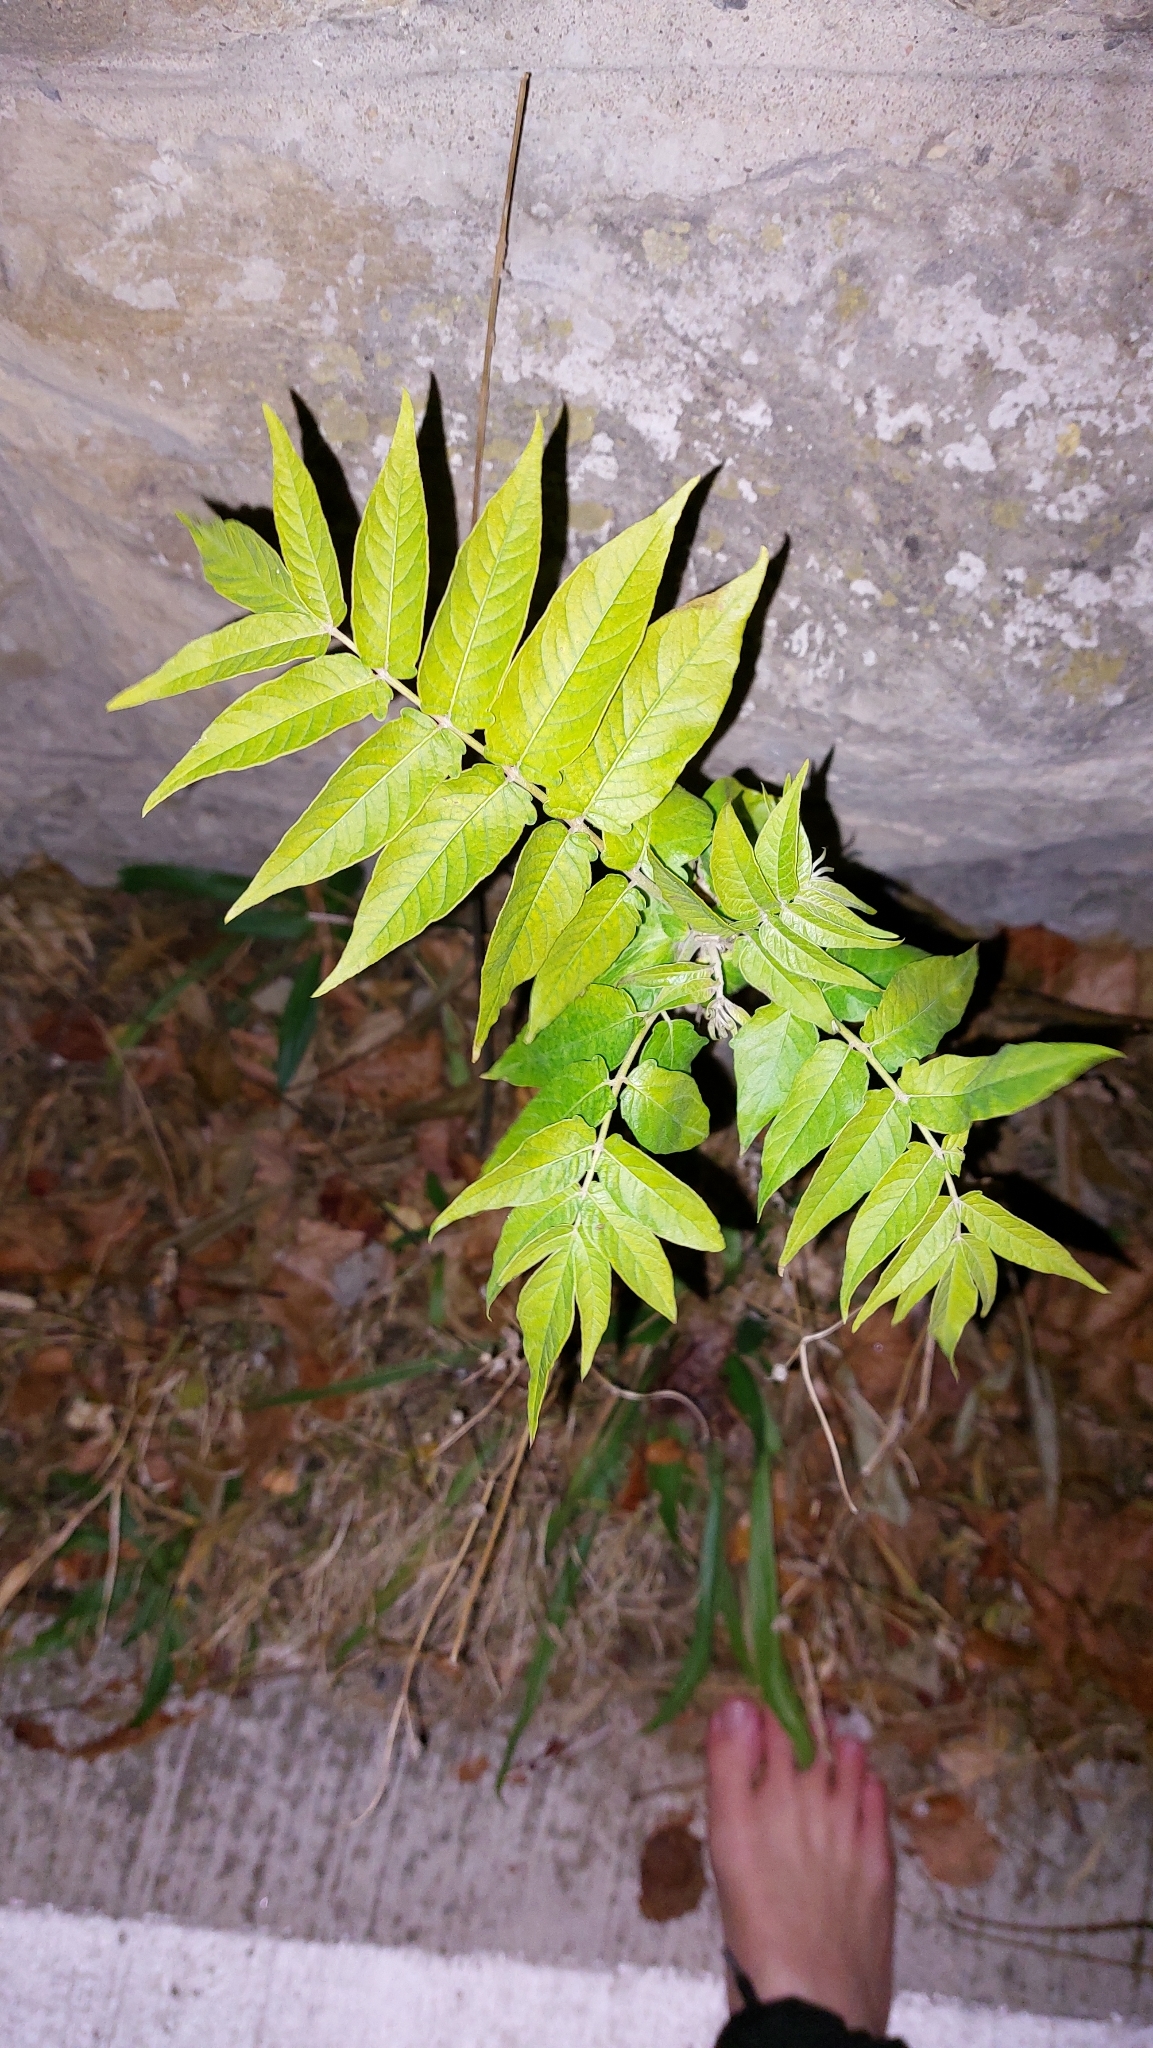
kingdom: Plantae
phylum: Tracheophyta
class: Magnoliopsida
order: Sapindales
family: Simaroubaceae
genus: Ailanthus
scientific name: Ailanthus altissima
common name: Tree-of-heaven
